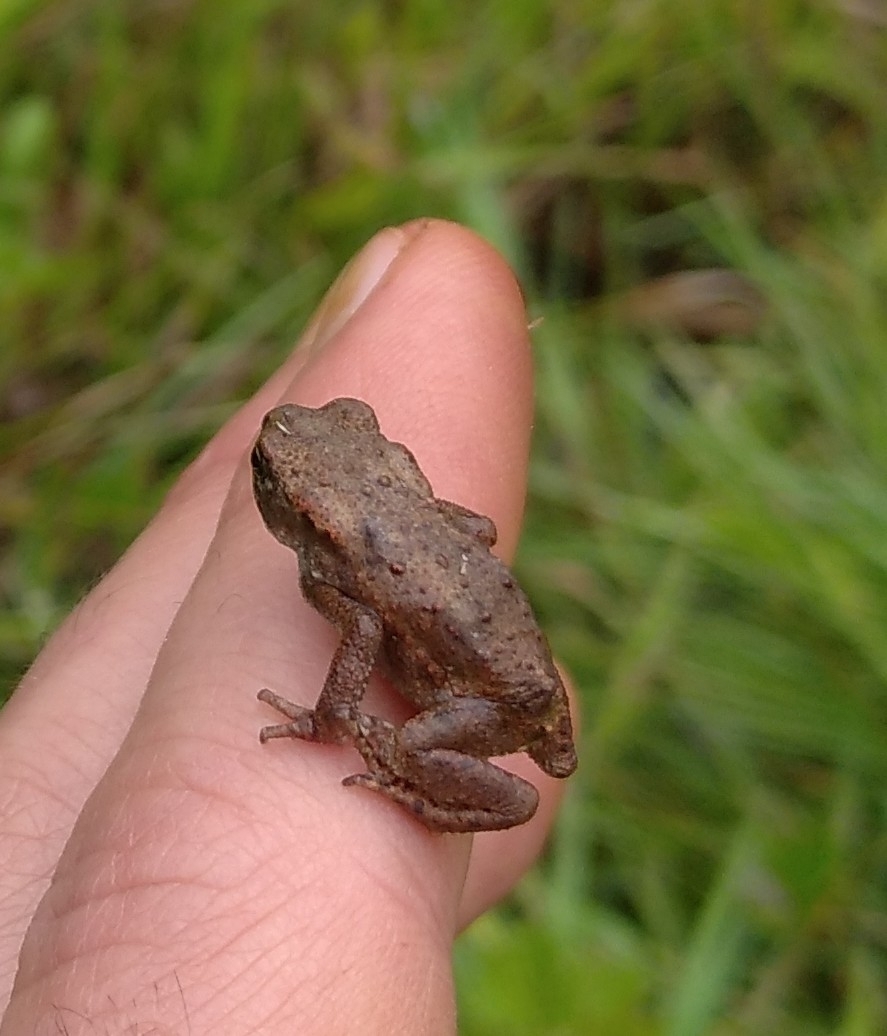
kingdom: Animalia
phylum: Chordata
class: Amphibia
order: Anura
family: Bufonidae
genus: Bufo
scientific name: Bufo bufo
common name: Common toad
